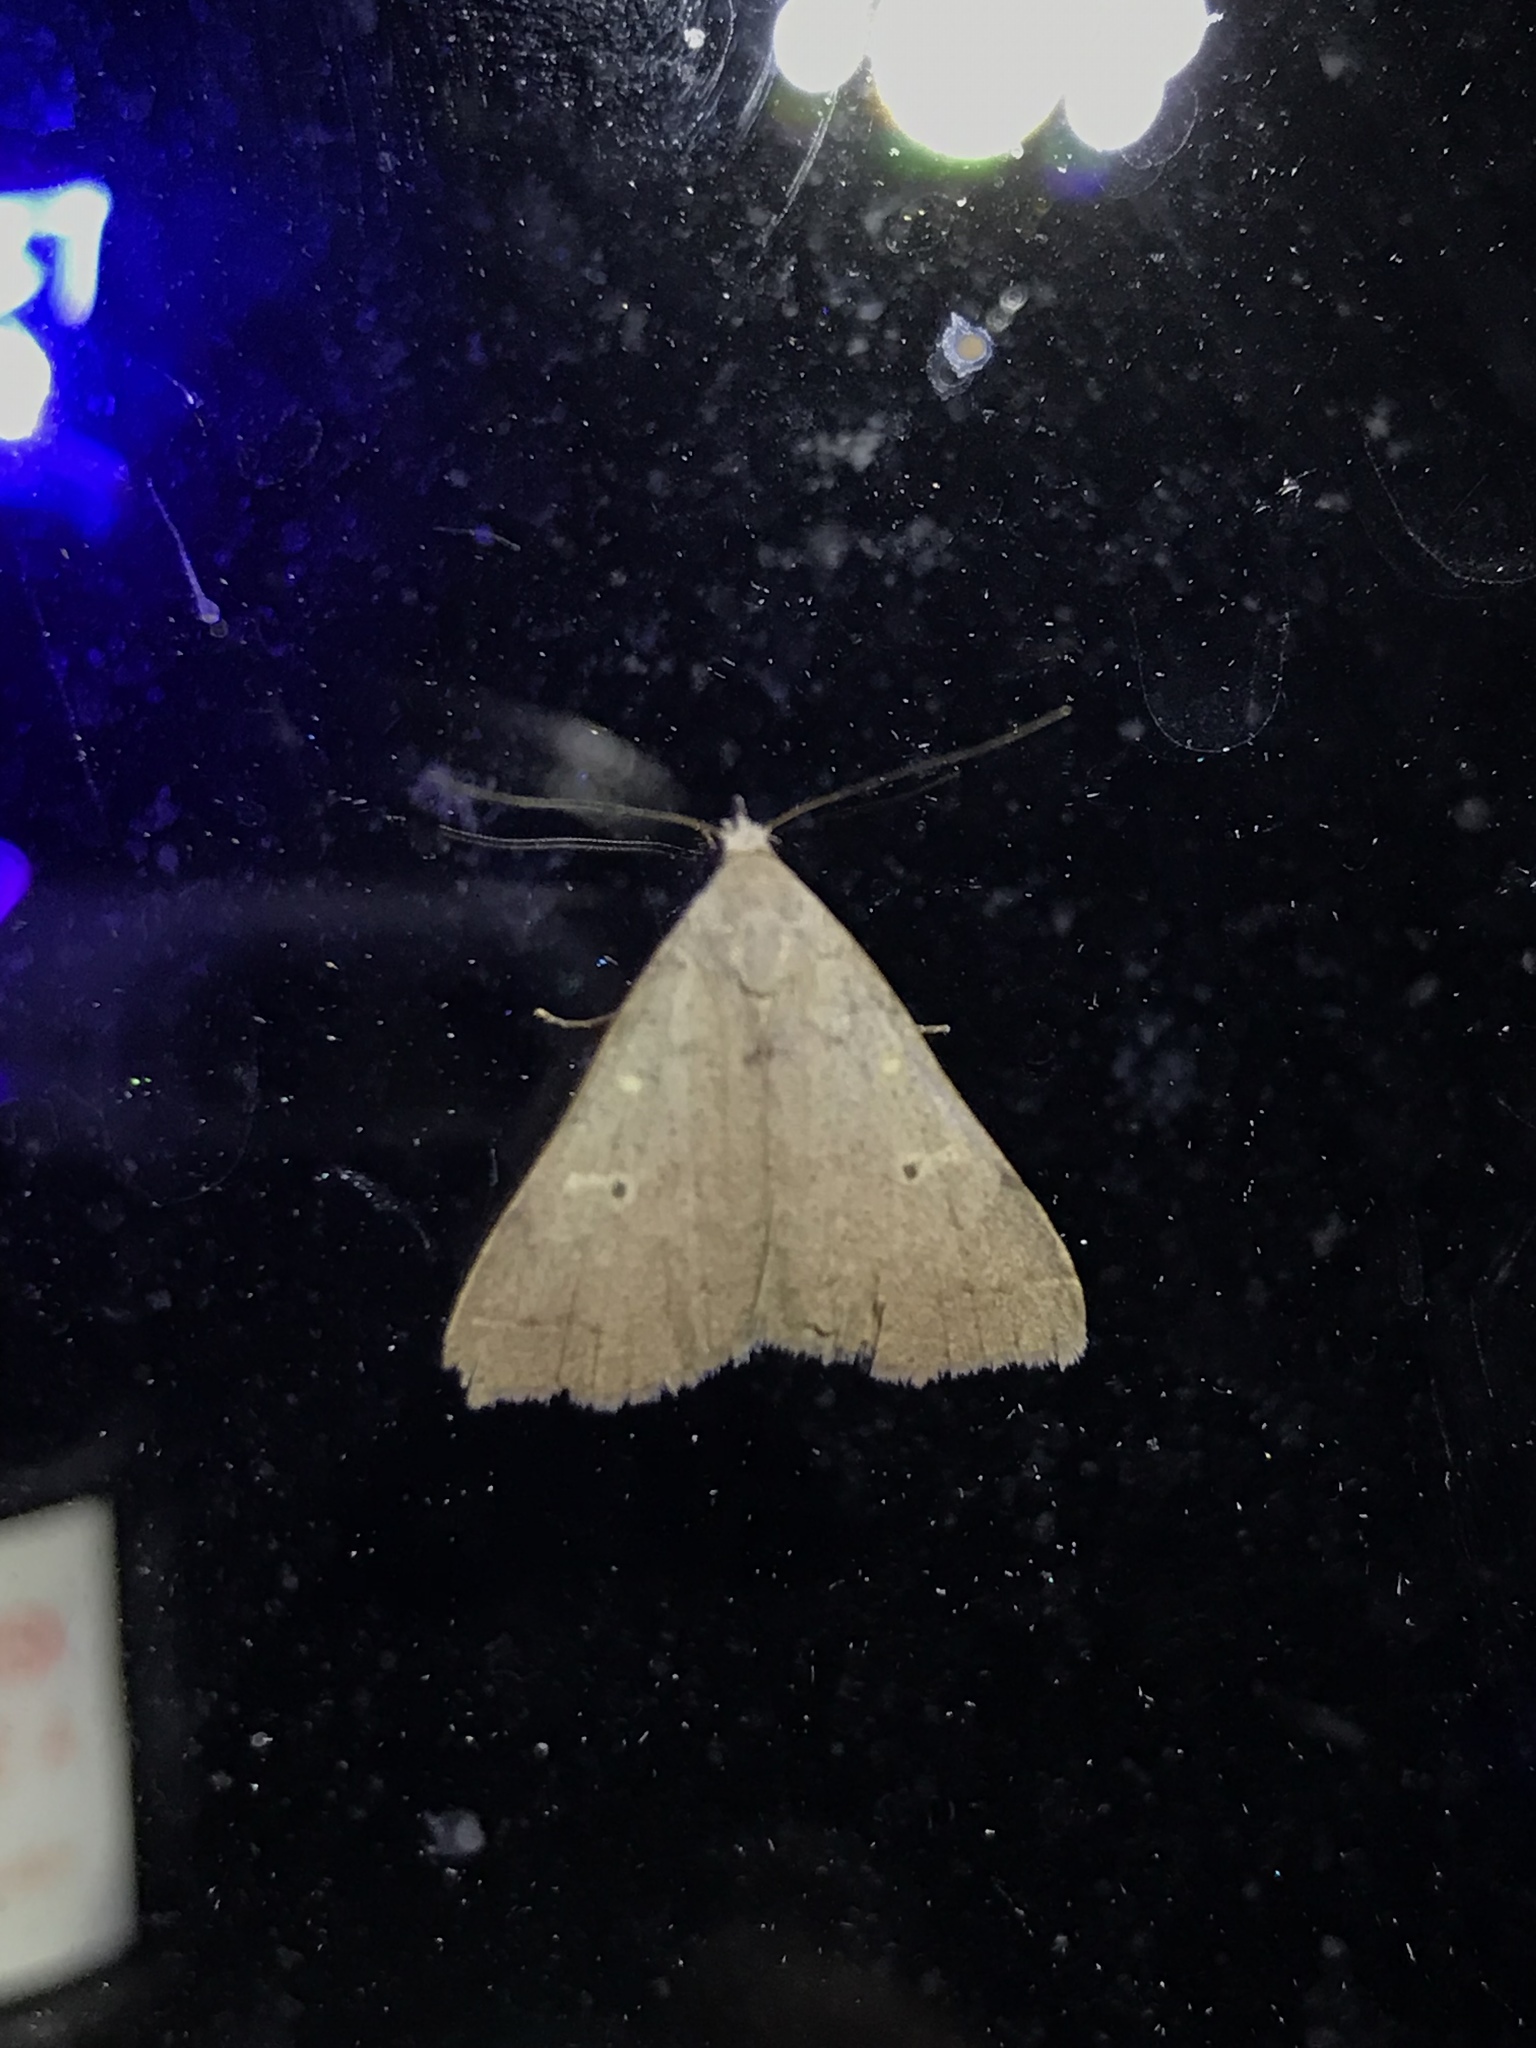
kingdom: Animalia
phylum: Arthropoda
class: Insecta
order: Lepidoptera
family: Erebidae
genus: Bleptina
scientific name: Bleptina caradrinalis
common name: Bent-winged owlet
